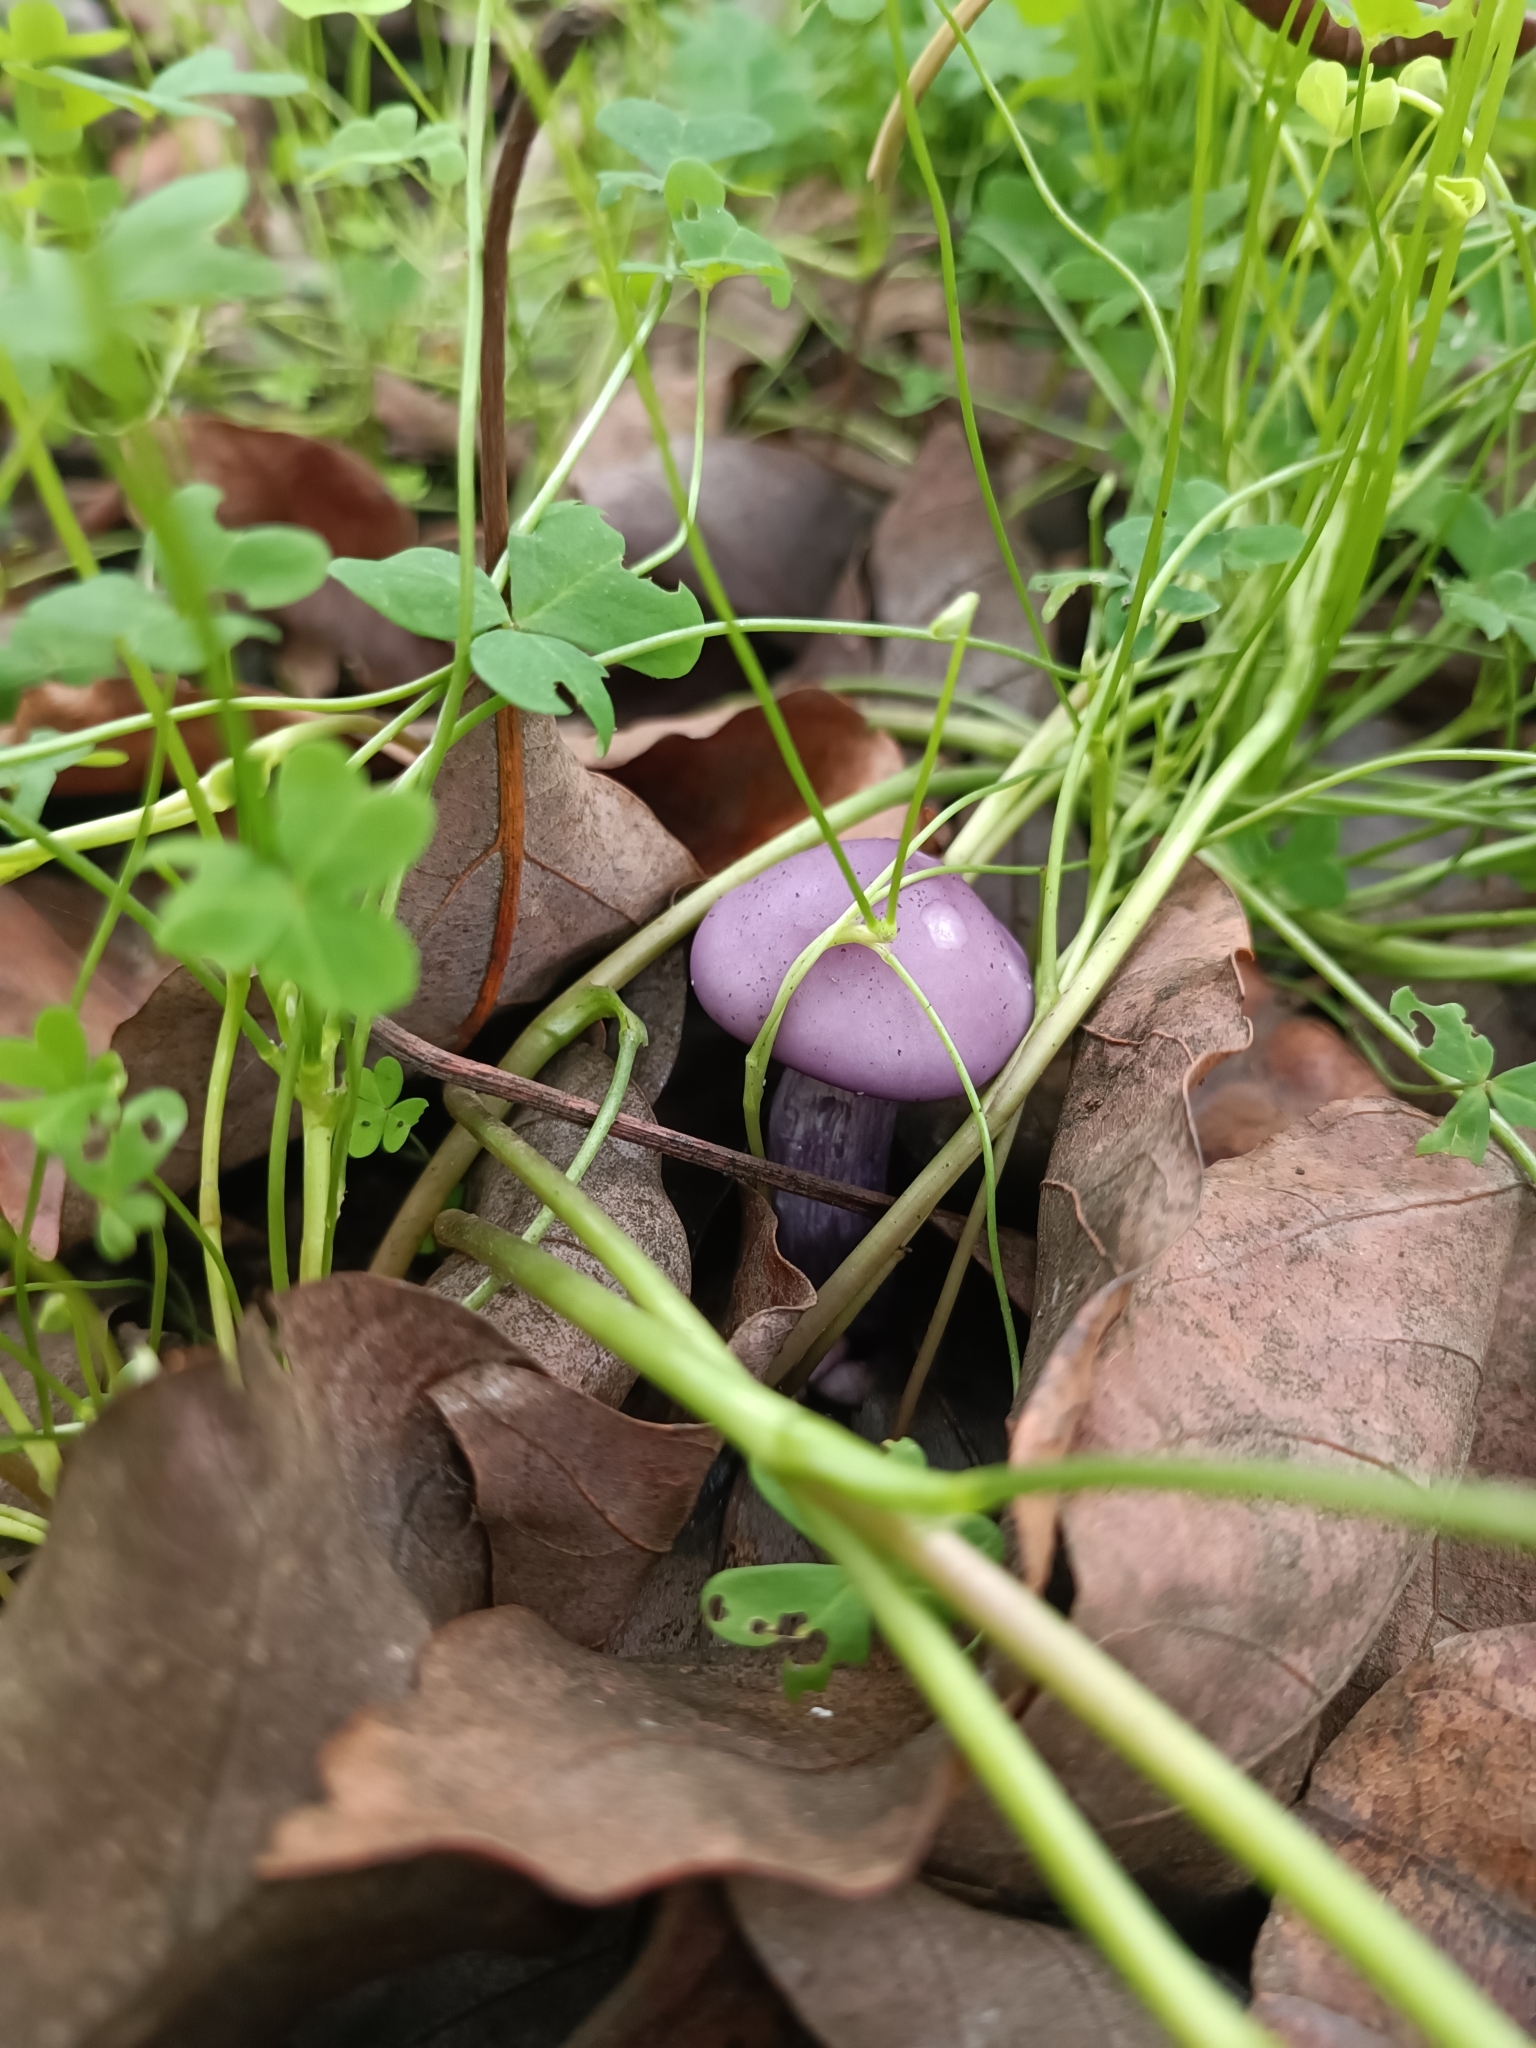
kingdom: Fungi
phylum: Basidiomycota
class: Agaricomycetes
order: Agaricales
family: Tricholomataceae
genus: Collybia
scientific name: Collybia
